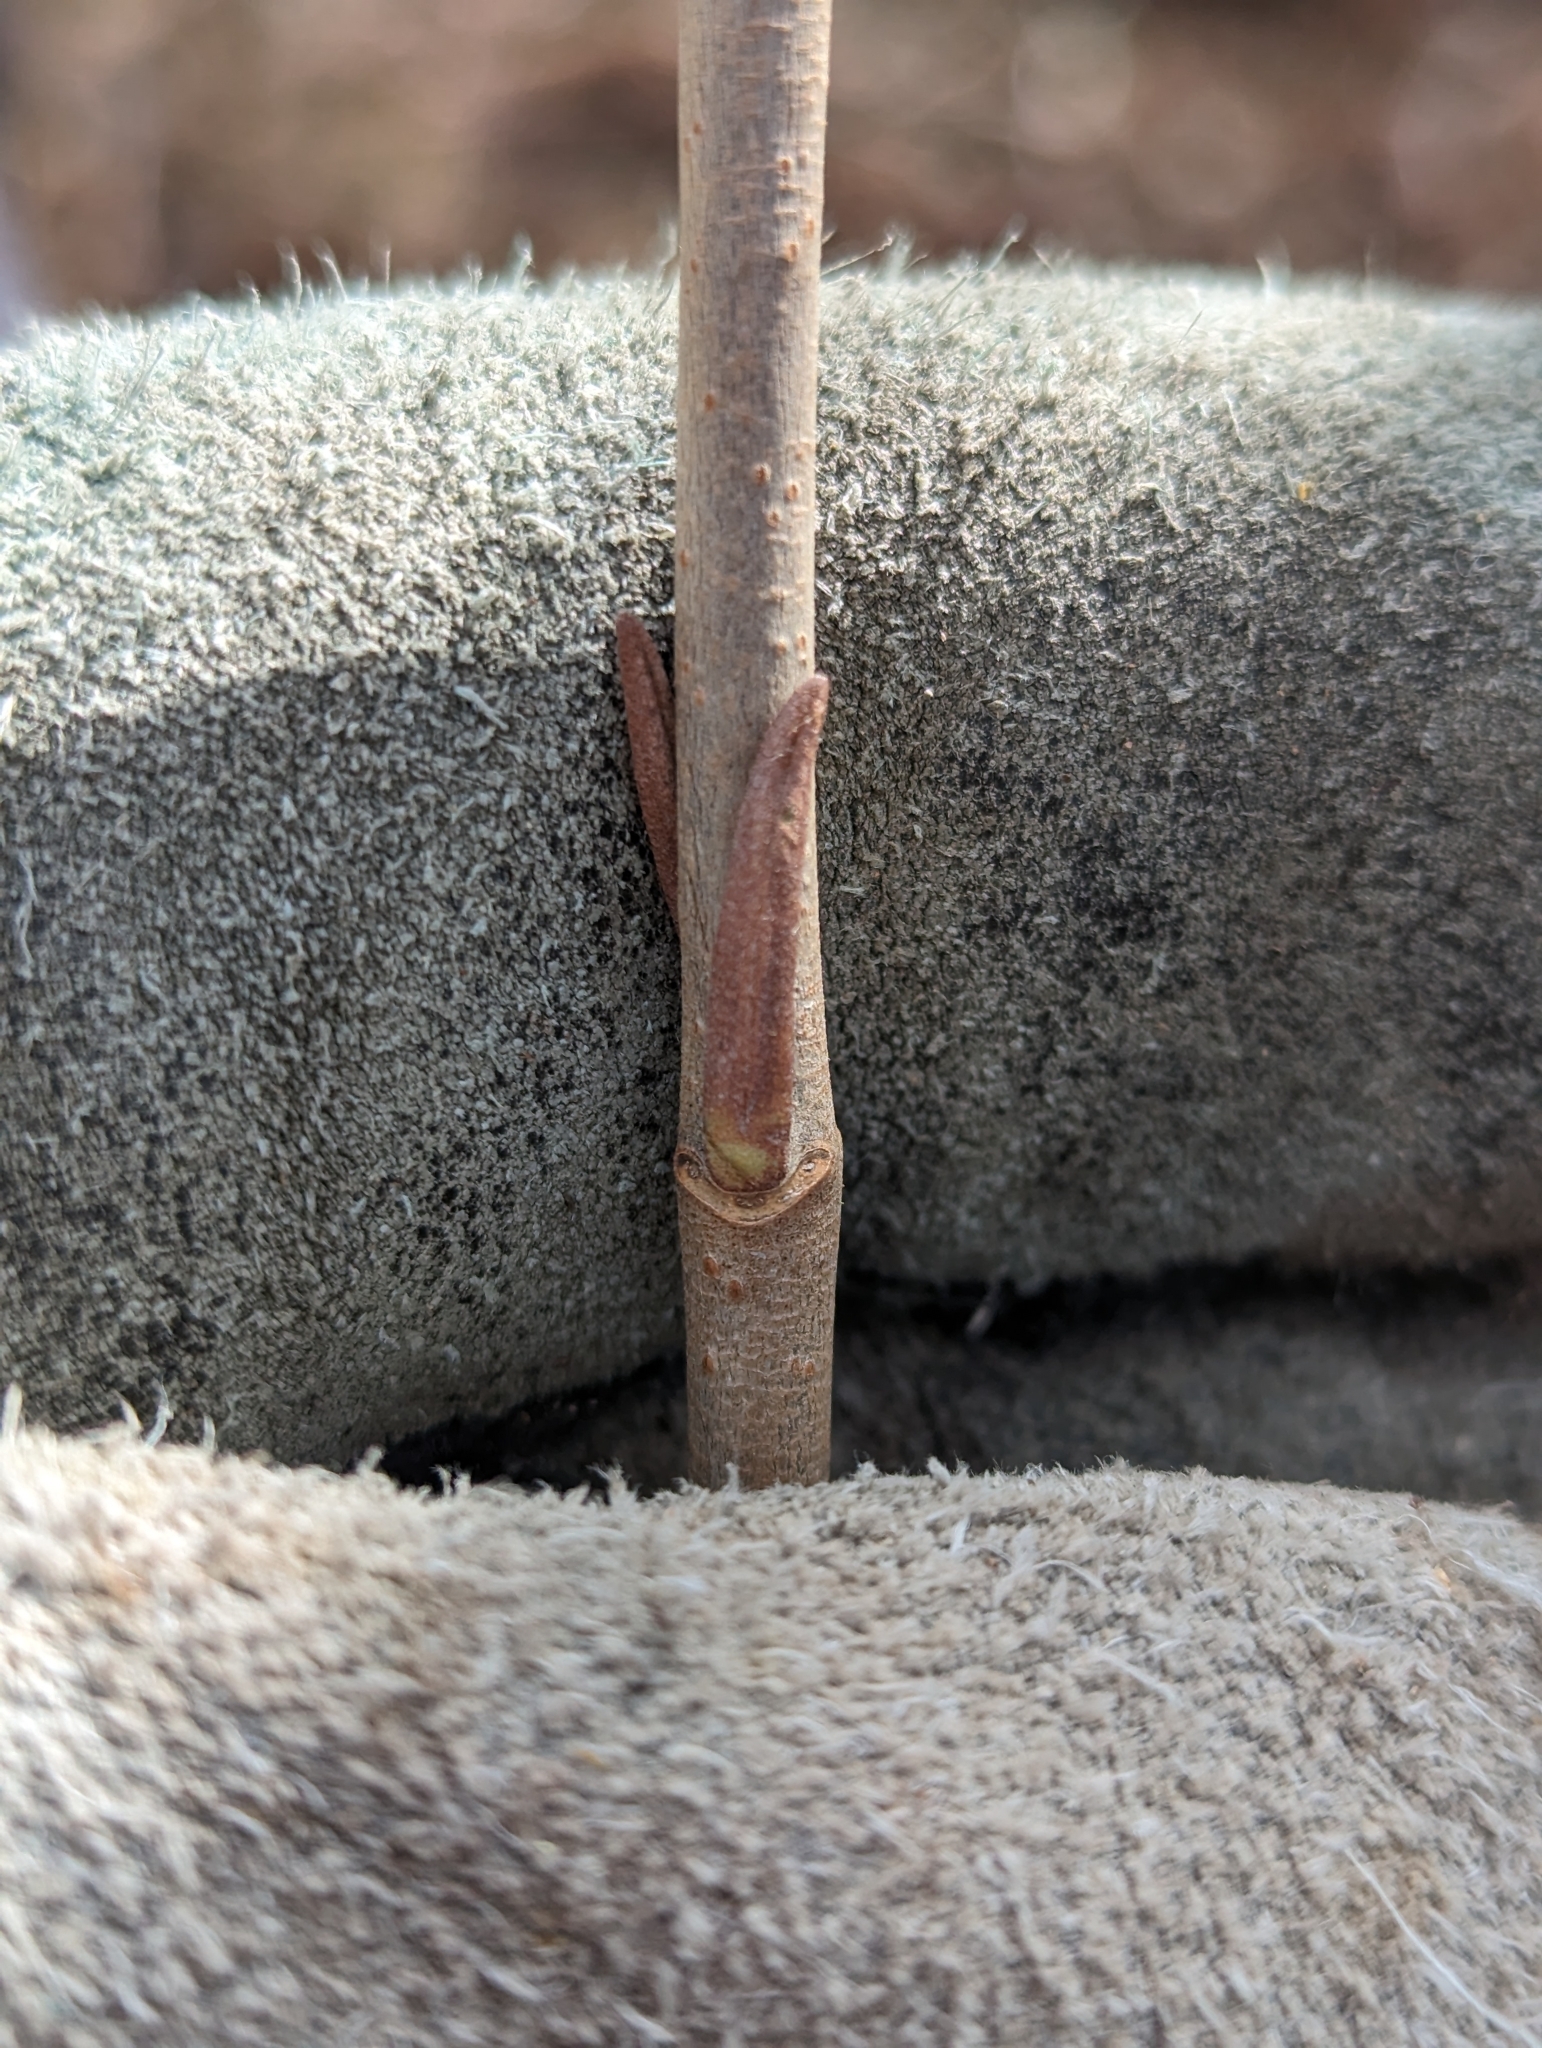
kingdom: Plantae
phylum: Tracheophyta
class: Magnoliopsida
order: Dipsacales
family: Viburnaceae
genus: Viburnum
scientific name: Viburnum lentago
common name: Black haw
